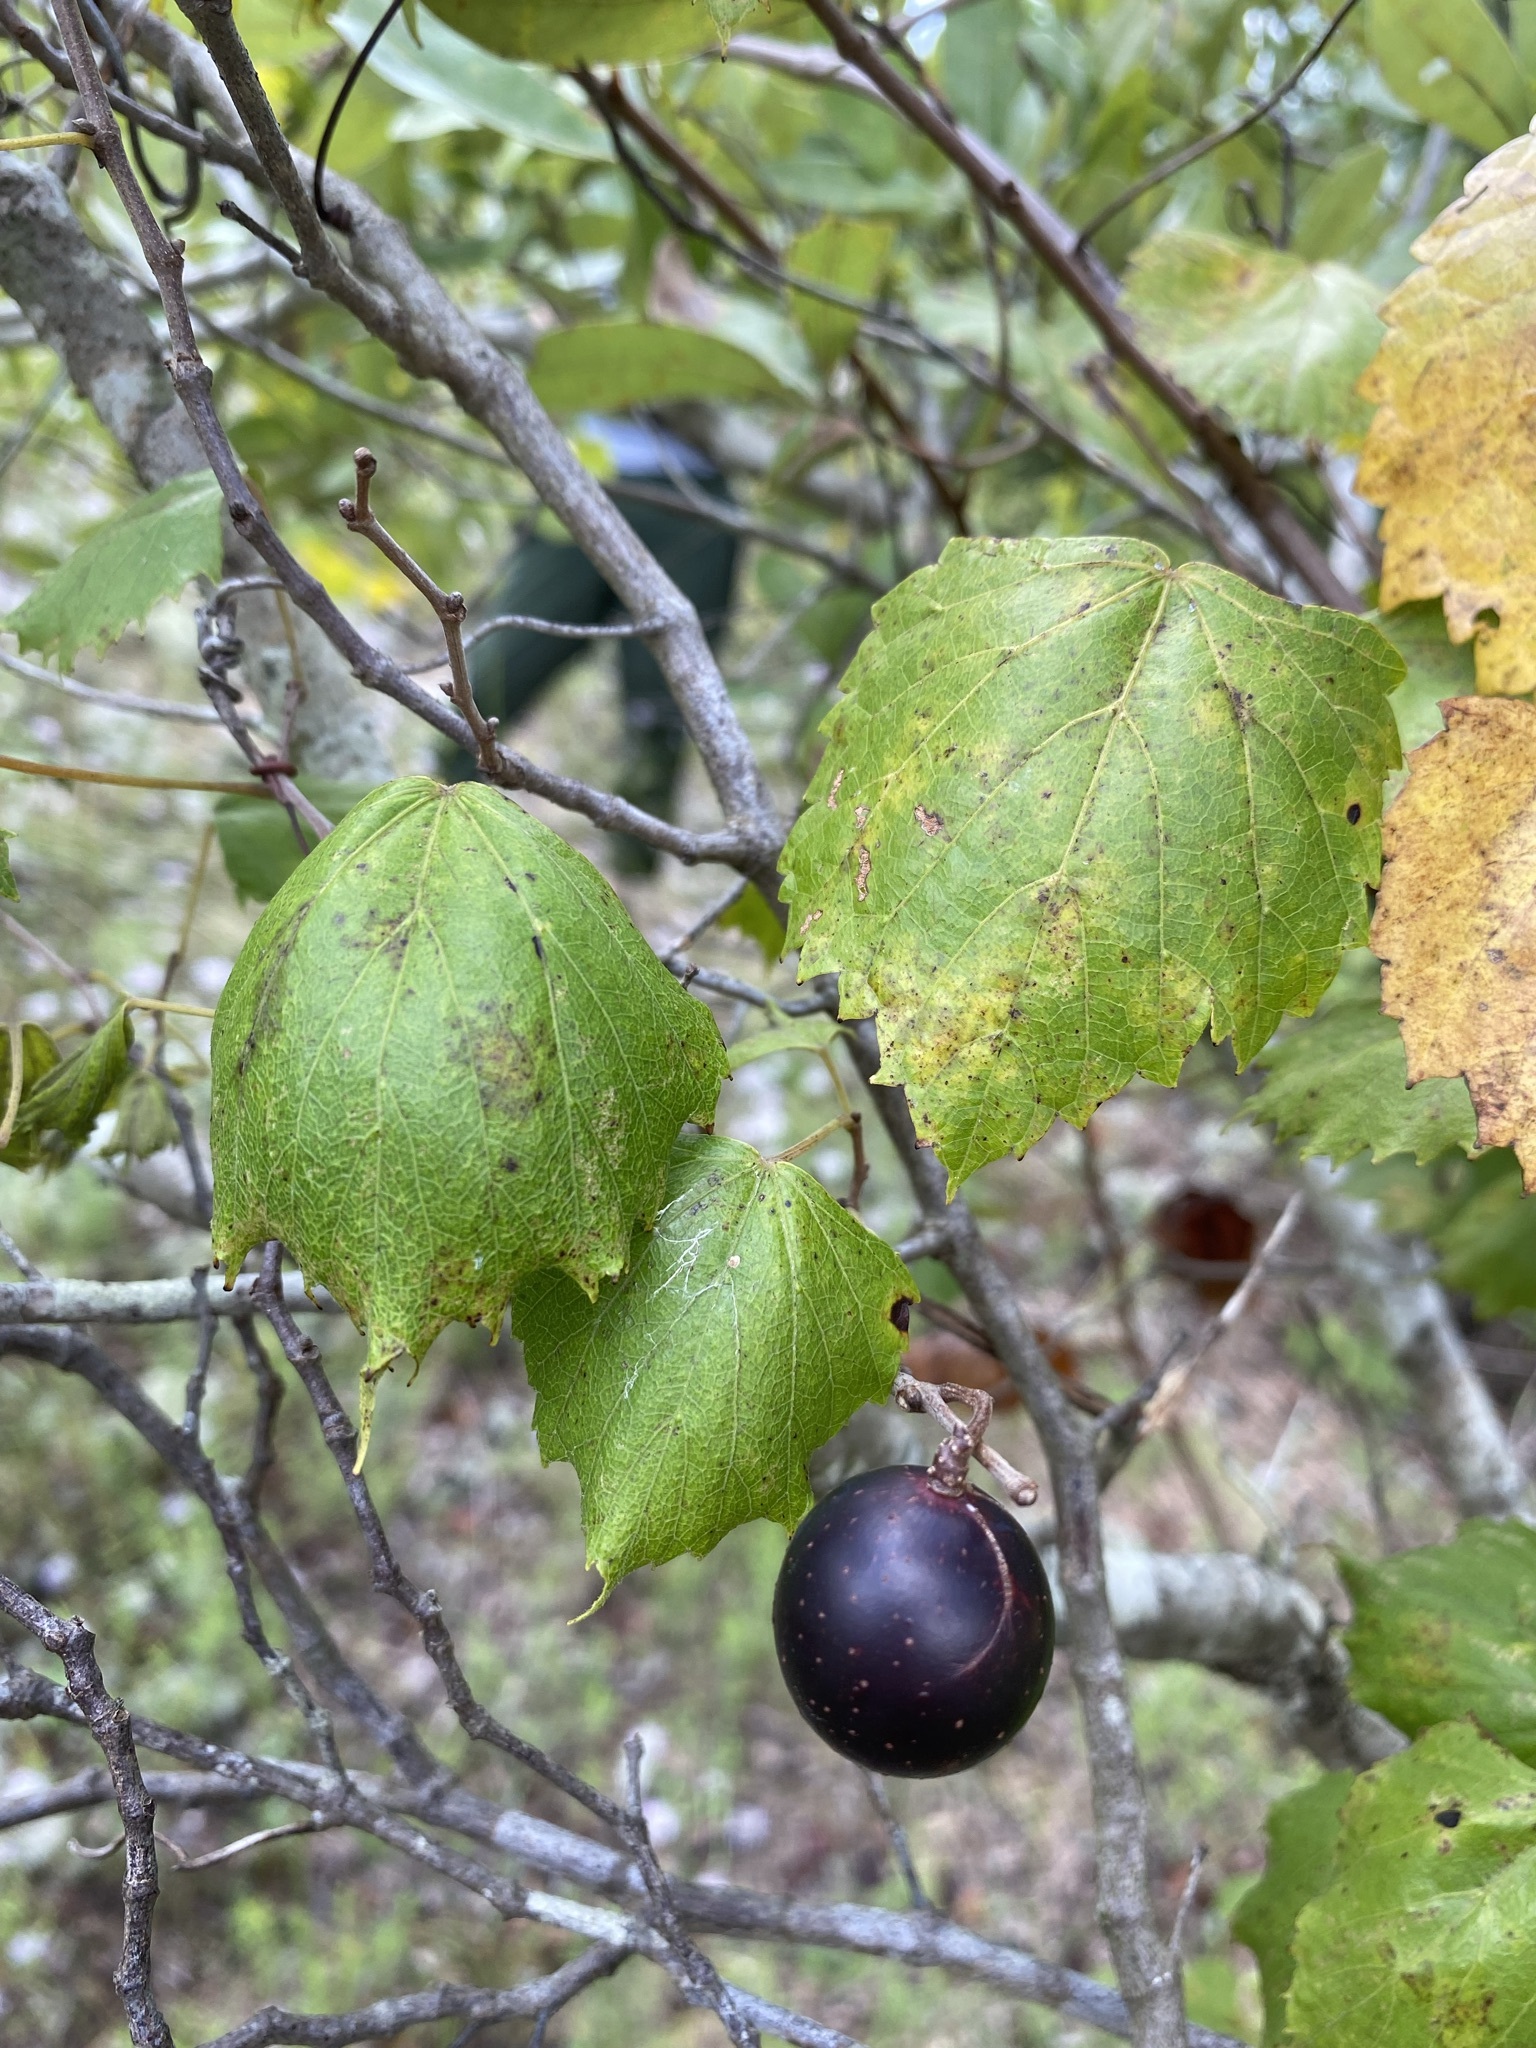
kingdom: Plantae
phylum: Tracheophyta
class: Magnoliopsida
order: Vitales
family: Vitaceae
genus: Vitis
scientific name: Vitis rotundifolia
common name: Muscadine grape
